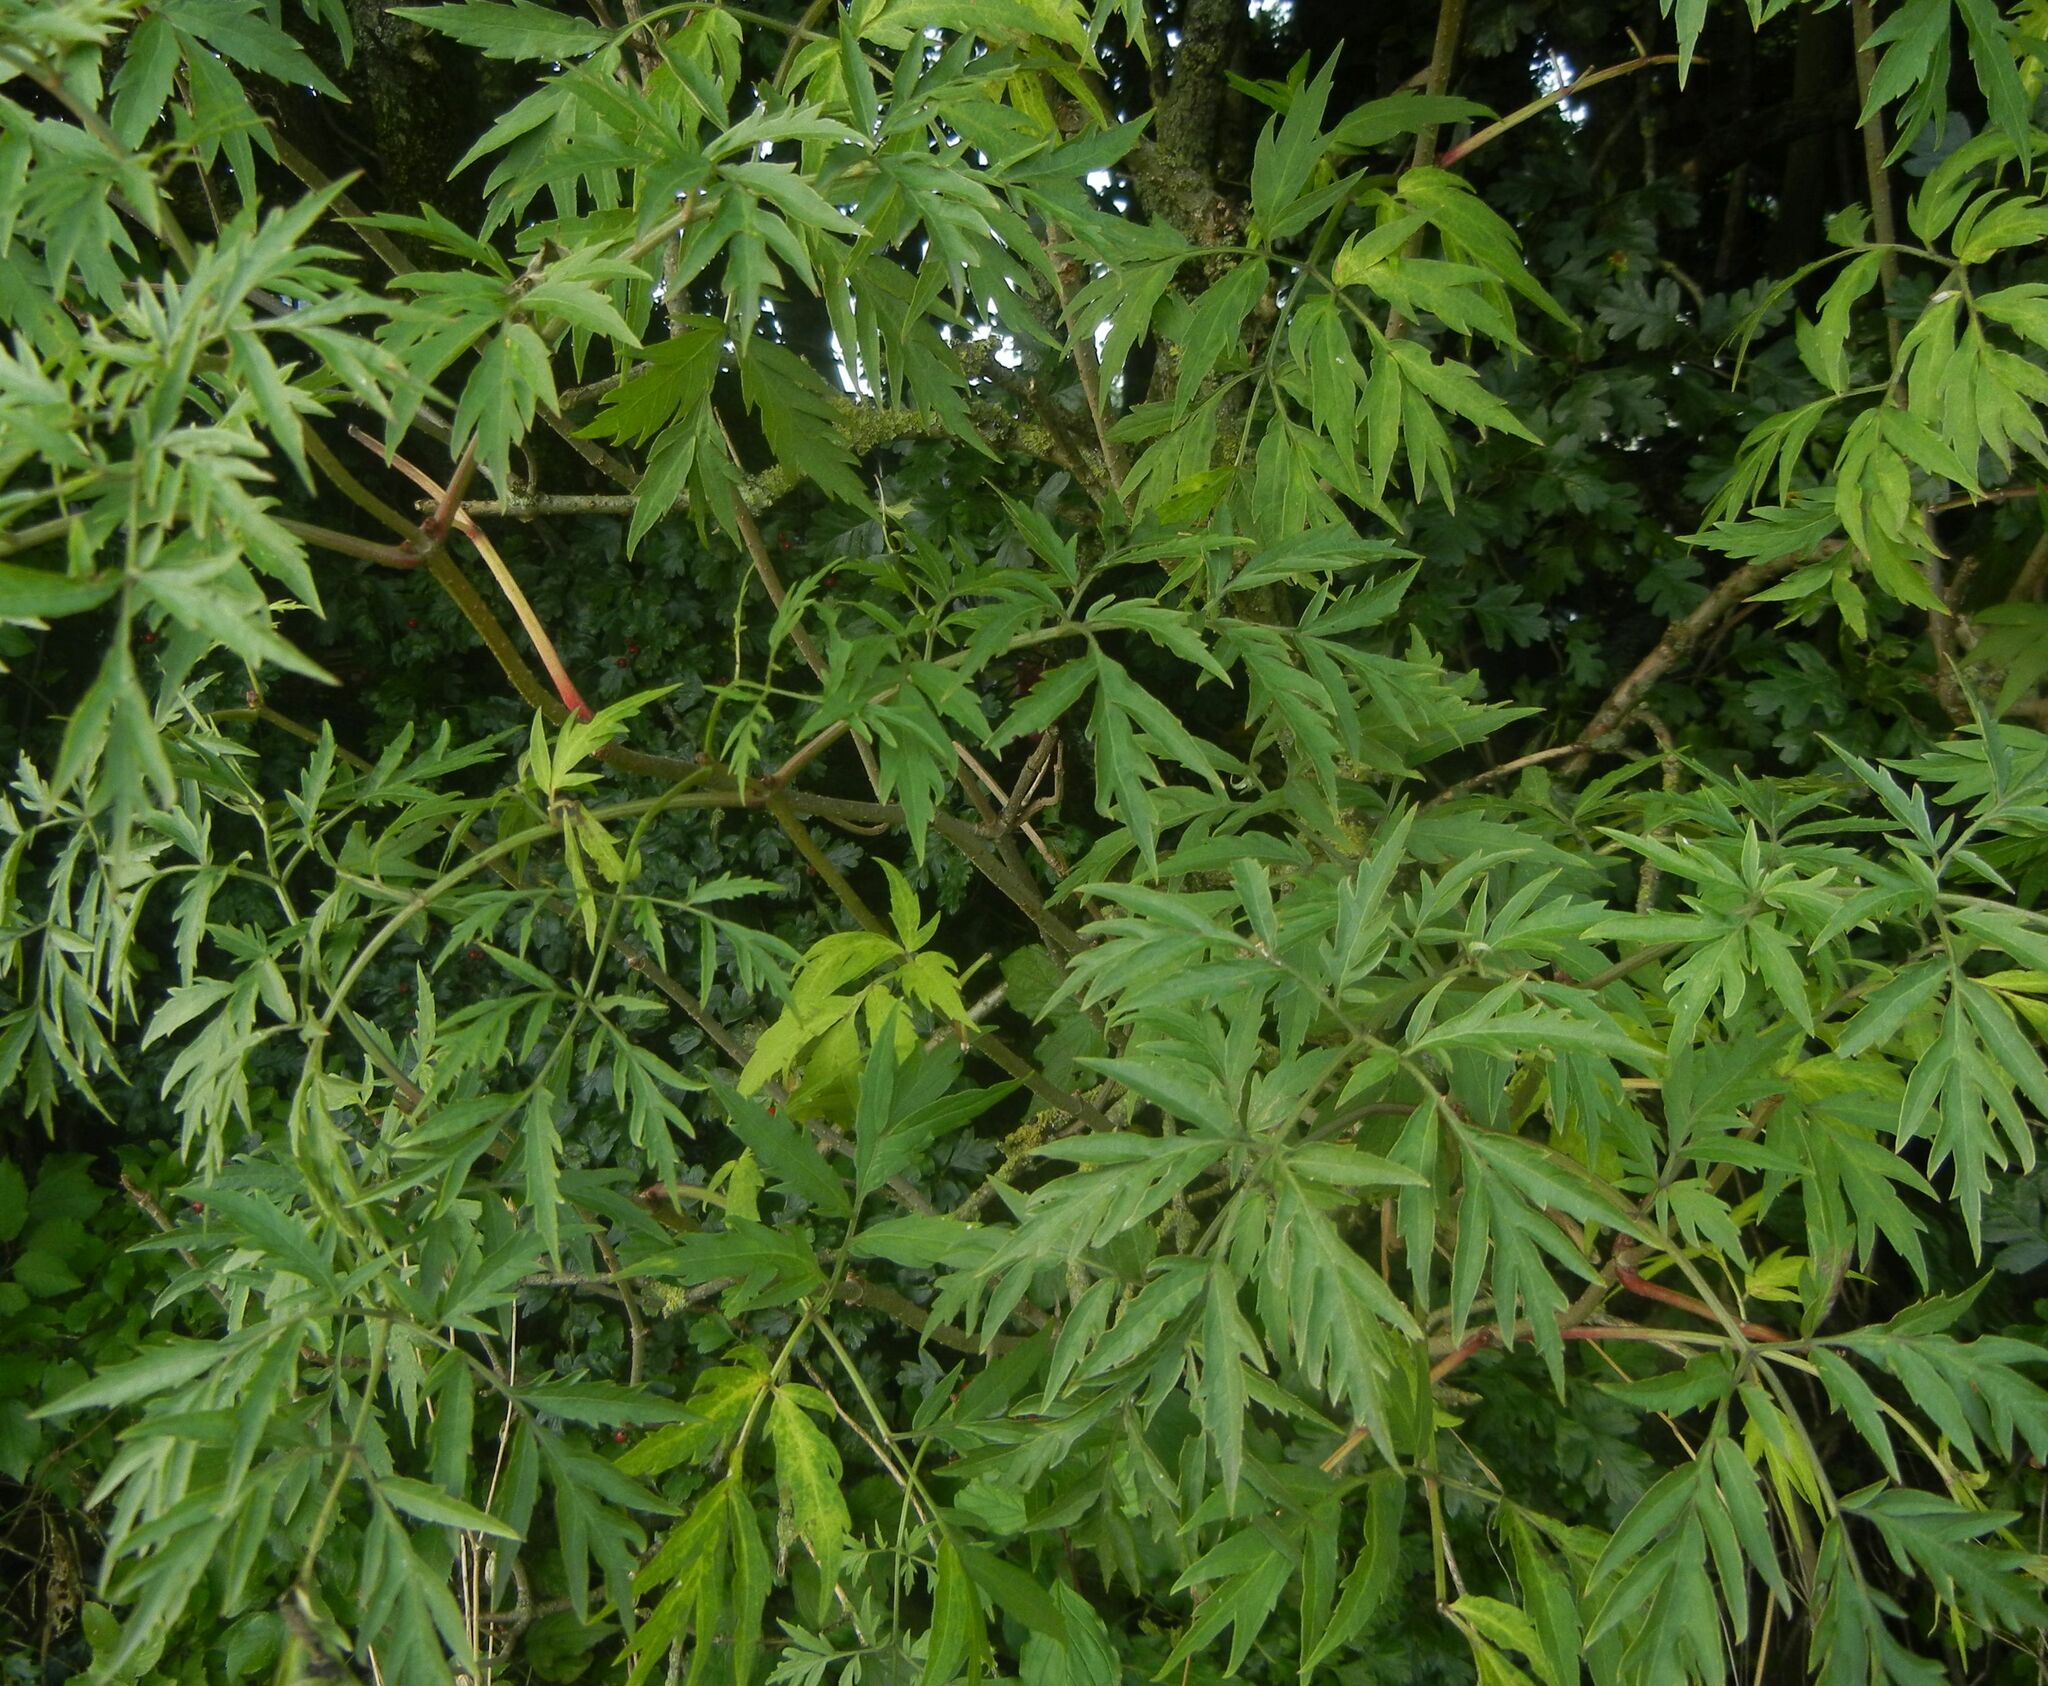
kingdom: Plantae
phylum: Tracheophyta
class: Magnoliopsida
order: Dipsacales
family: Viburnaceae
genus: Sambucus
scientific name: Sambucus nigra
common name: Elder
